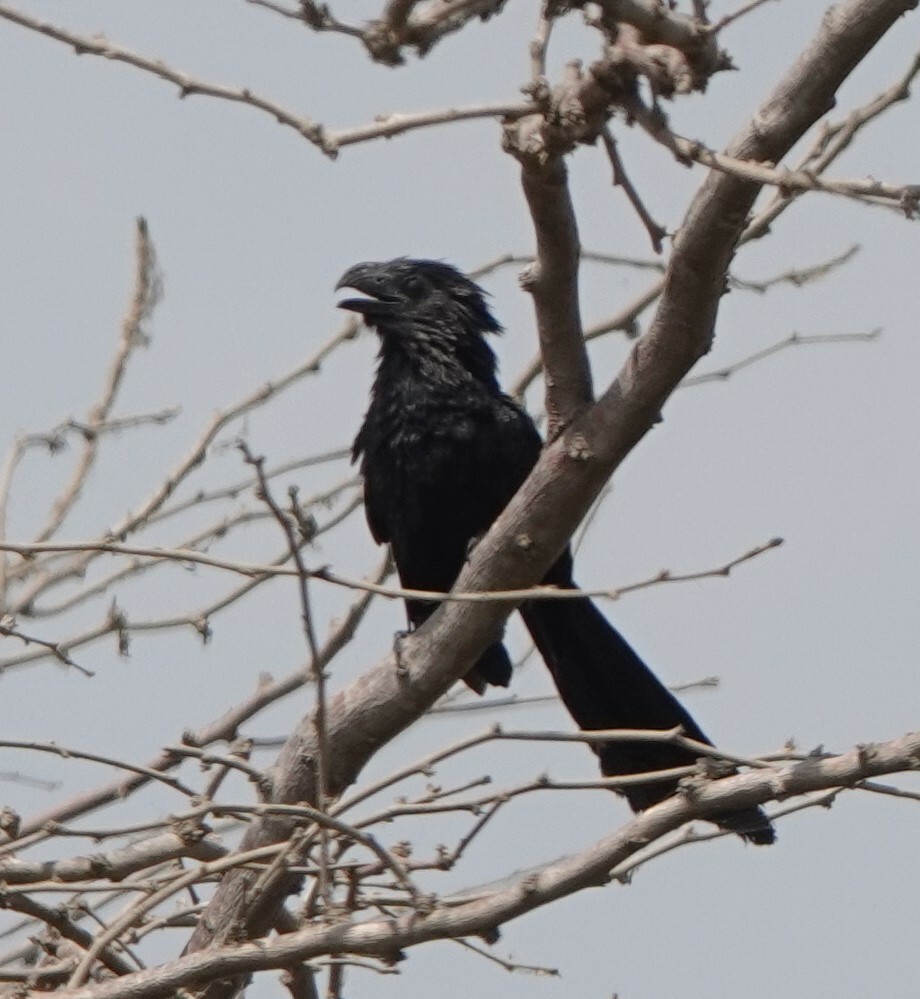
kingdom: Animalia
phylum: Chordata
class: Aves
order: Cuculiformes
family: Cuculidae
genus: Crotophaga
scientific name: Crotophaga sulcirostris
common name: Groove-billed ani
